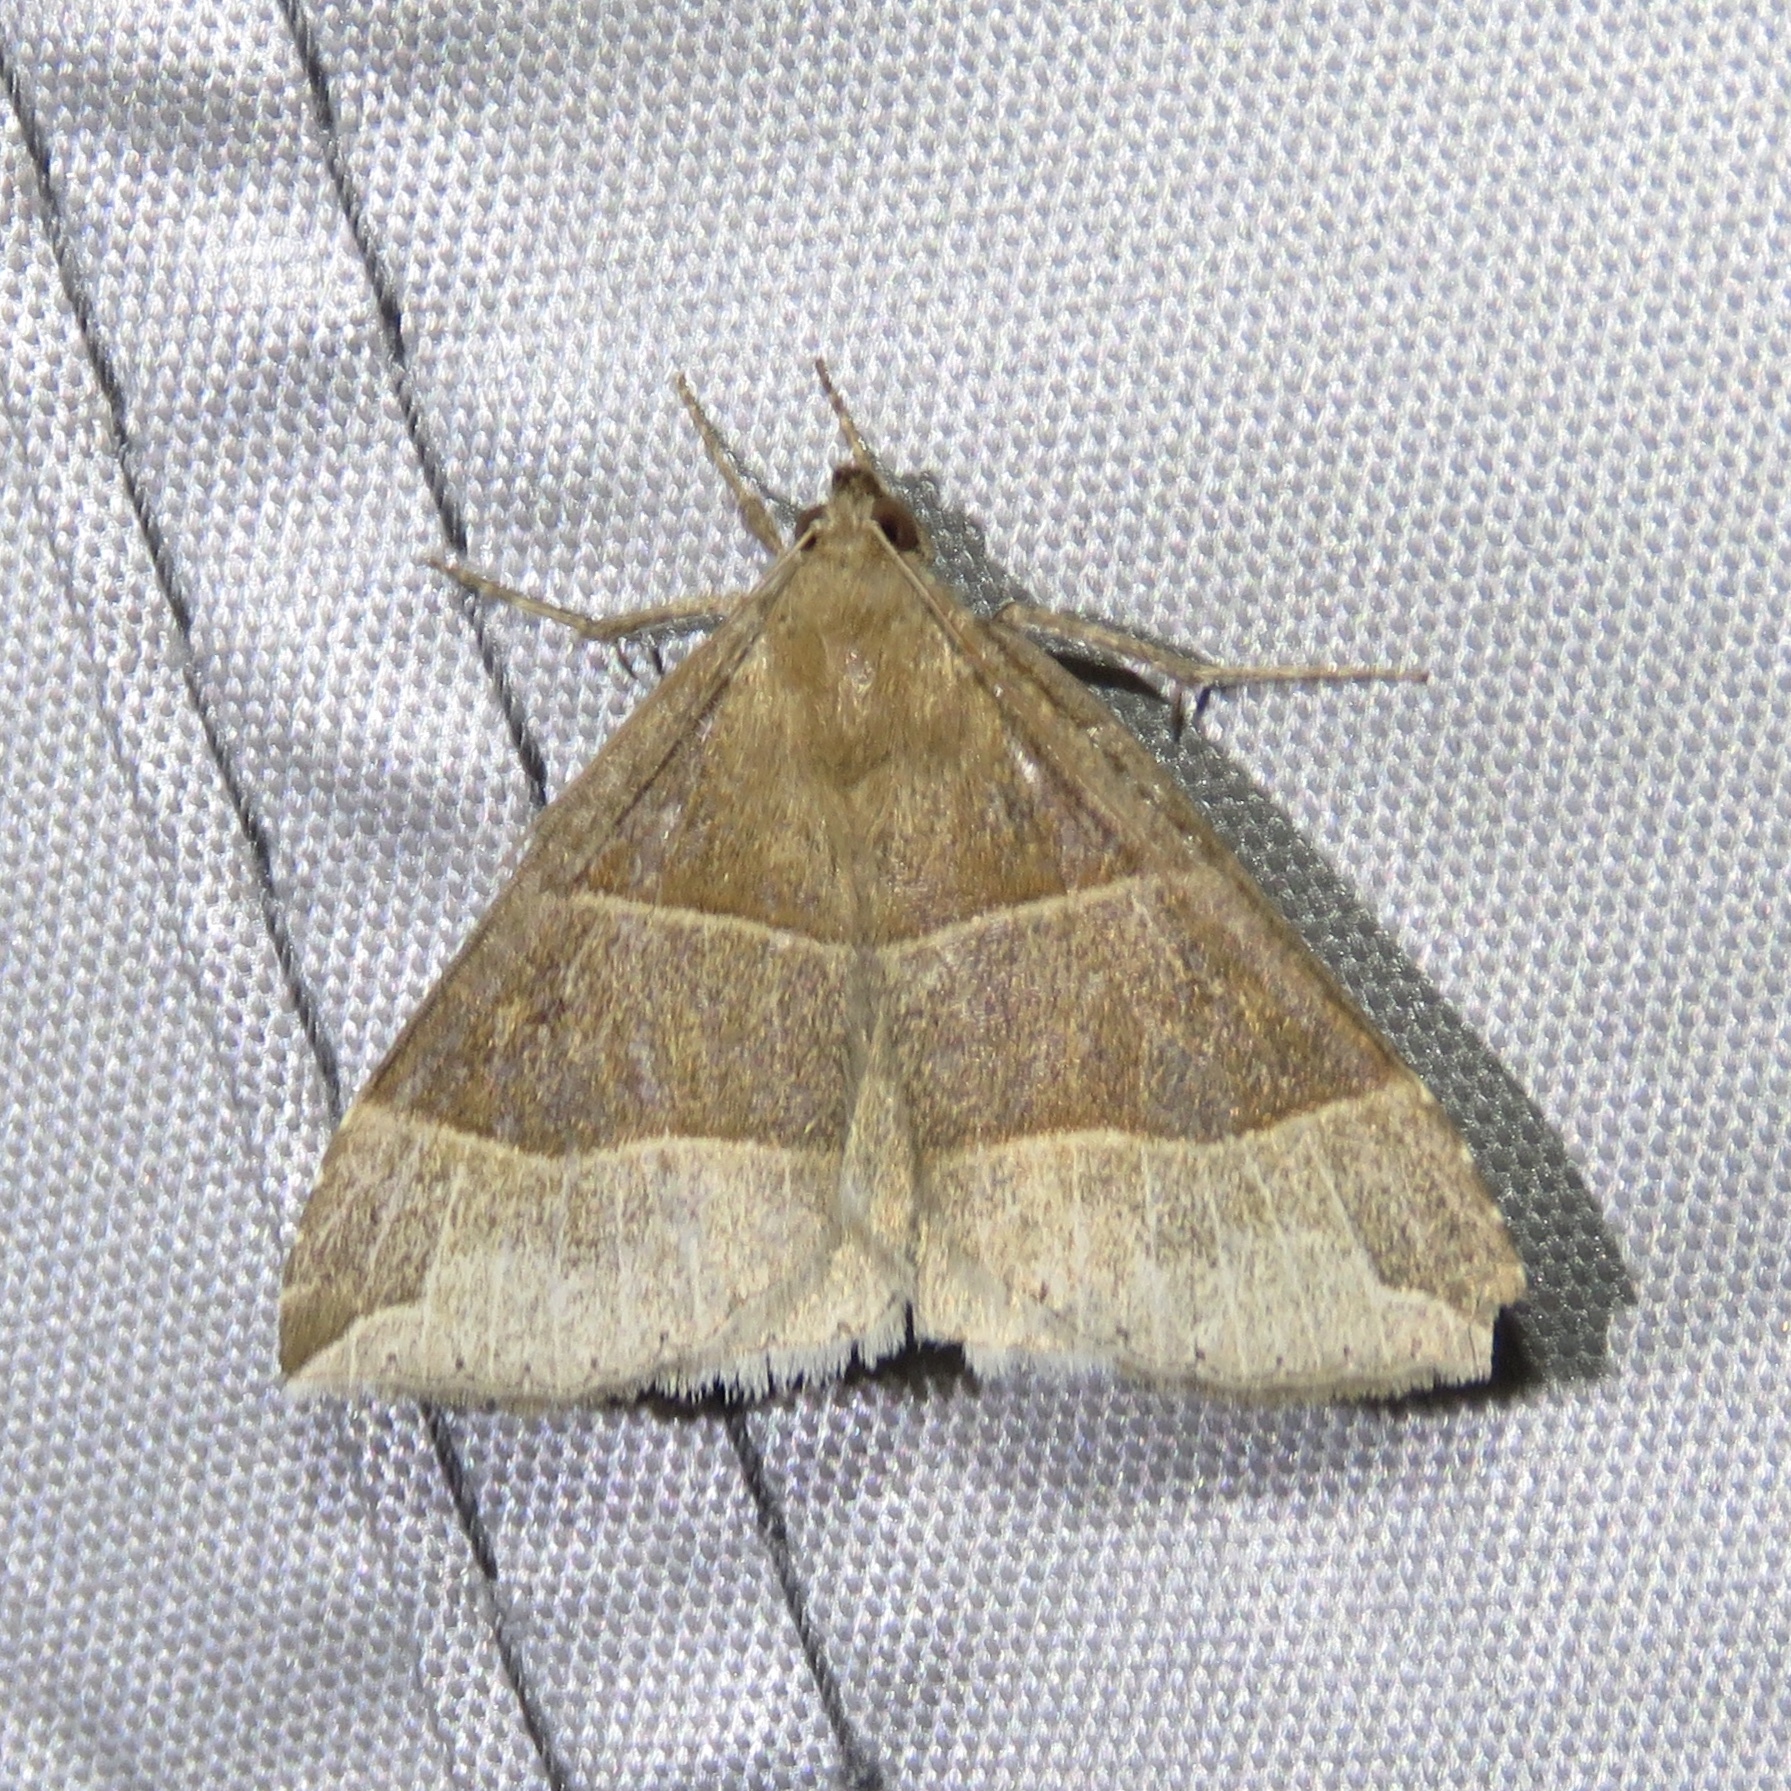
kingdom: Animalia
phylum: Arthropoda
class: Insecta
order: Lepidoptera
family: Erebidae
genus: Parallelia
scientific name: Parallelia bistriaris
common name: Maple looper moth
